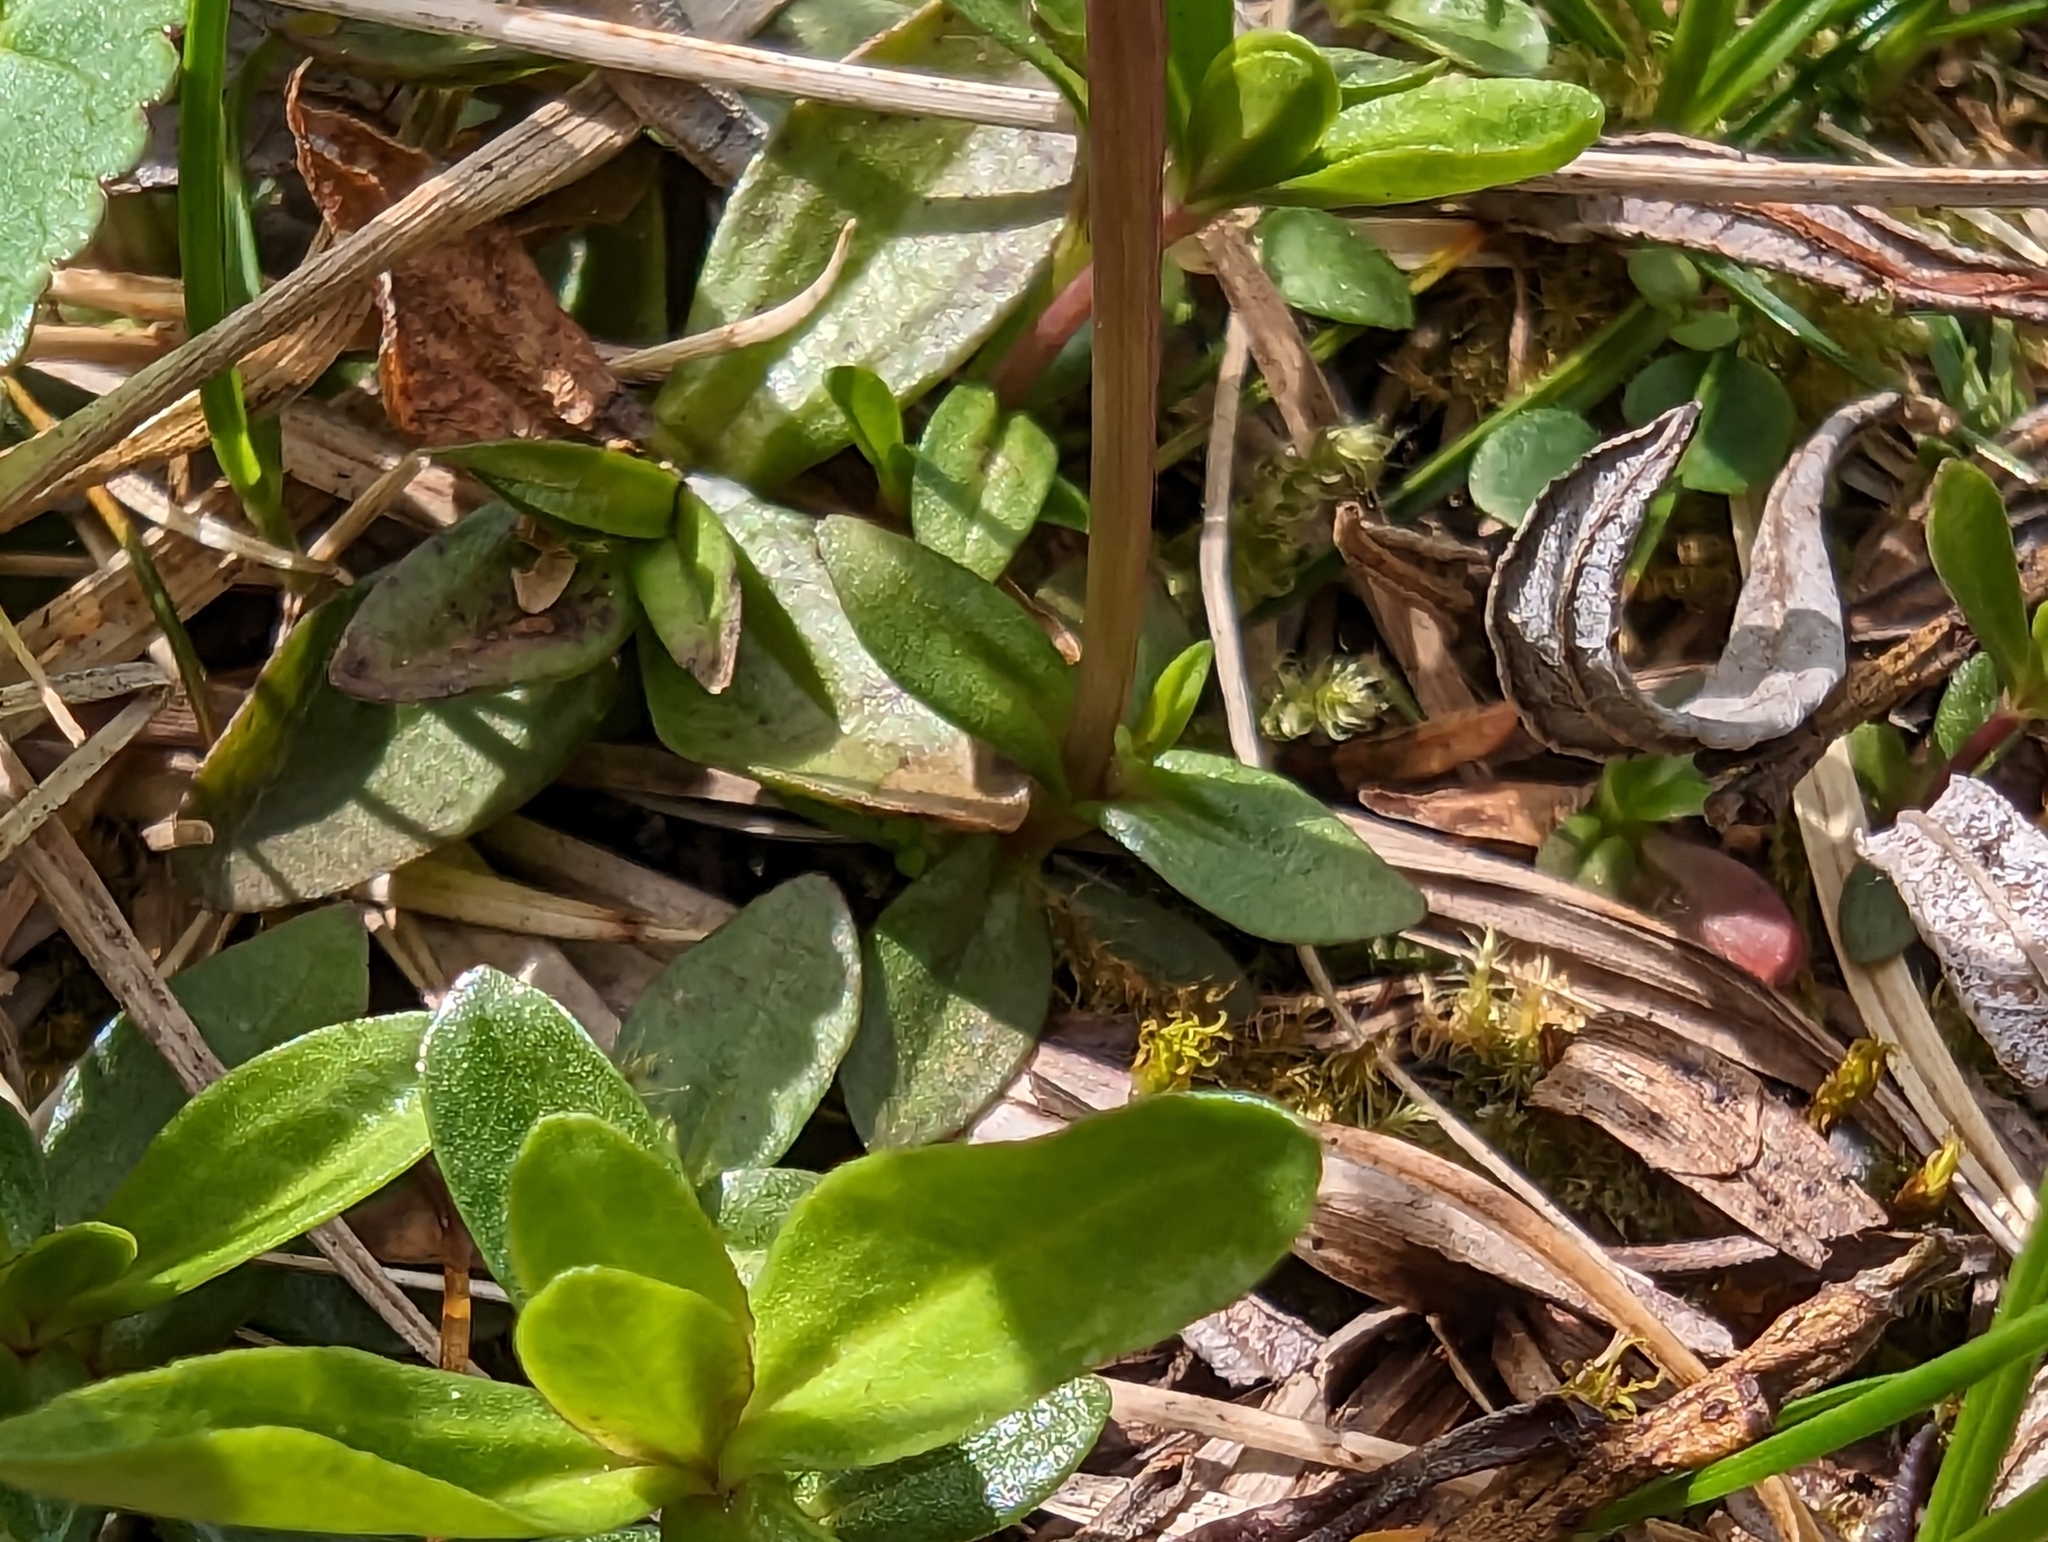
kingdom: Plantae
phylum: Tracheophyta
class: Magnoliopsida
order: Gentianales
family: Gentianaceae
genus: Gentiana
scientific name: Gentiana verna
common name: Spring gentian
